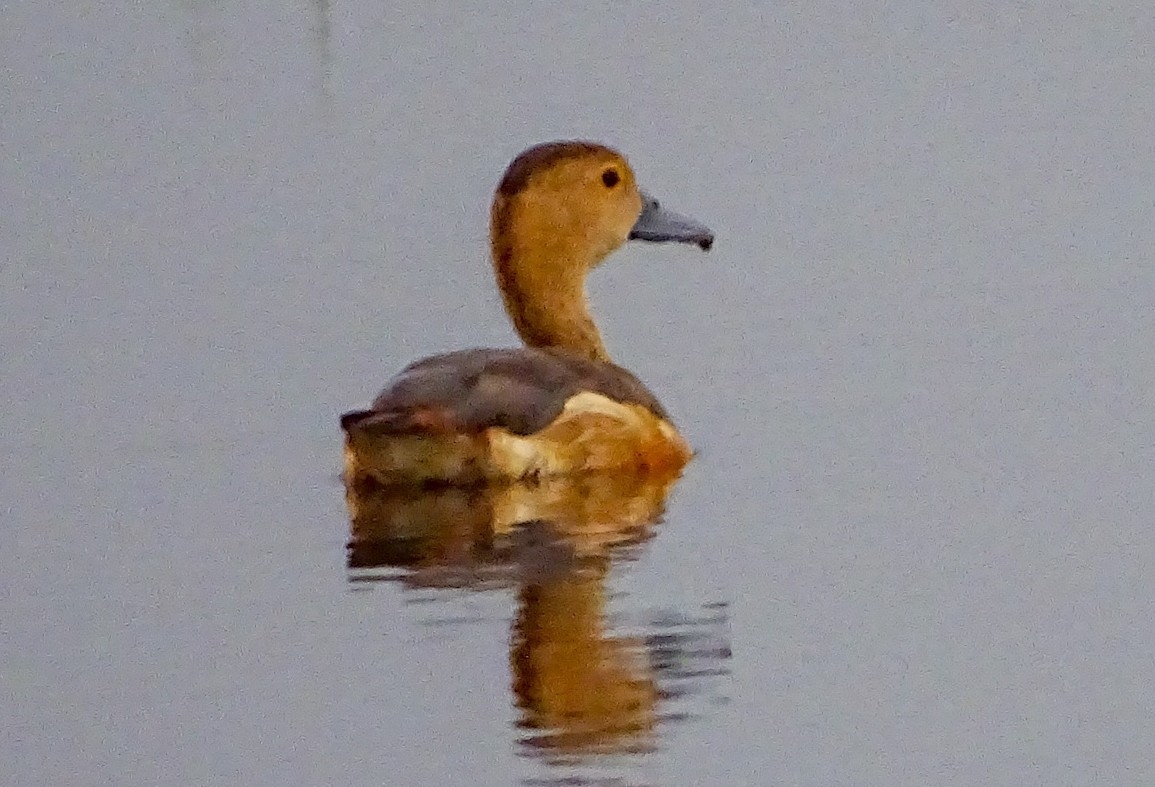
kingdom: Animalia
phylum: Chordata
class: Aves
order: Anseriformes
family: Anatidae
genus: Dendrocygna
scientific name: Dendrocygna javanica
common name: Lesser whistling-duck
